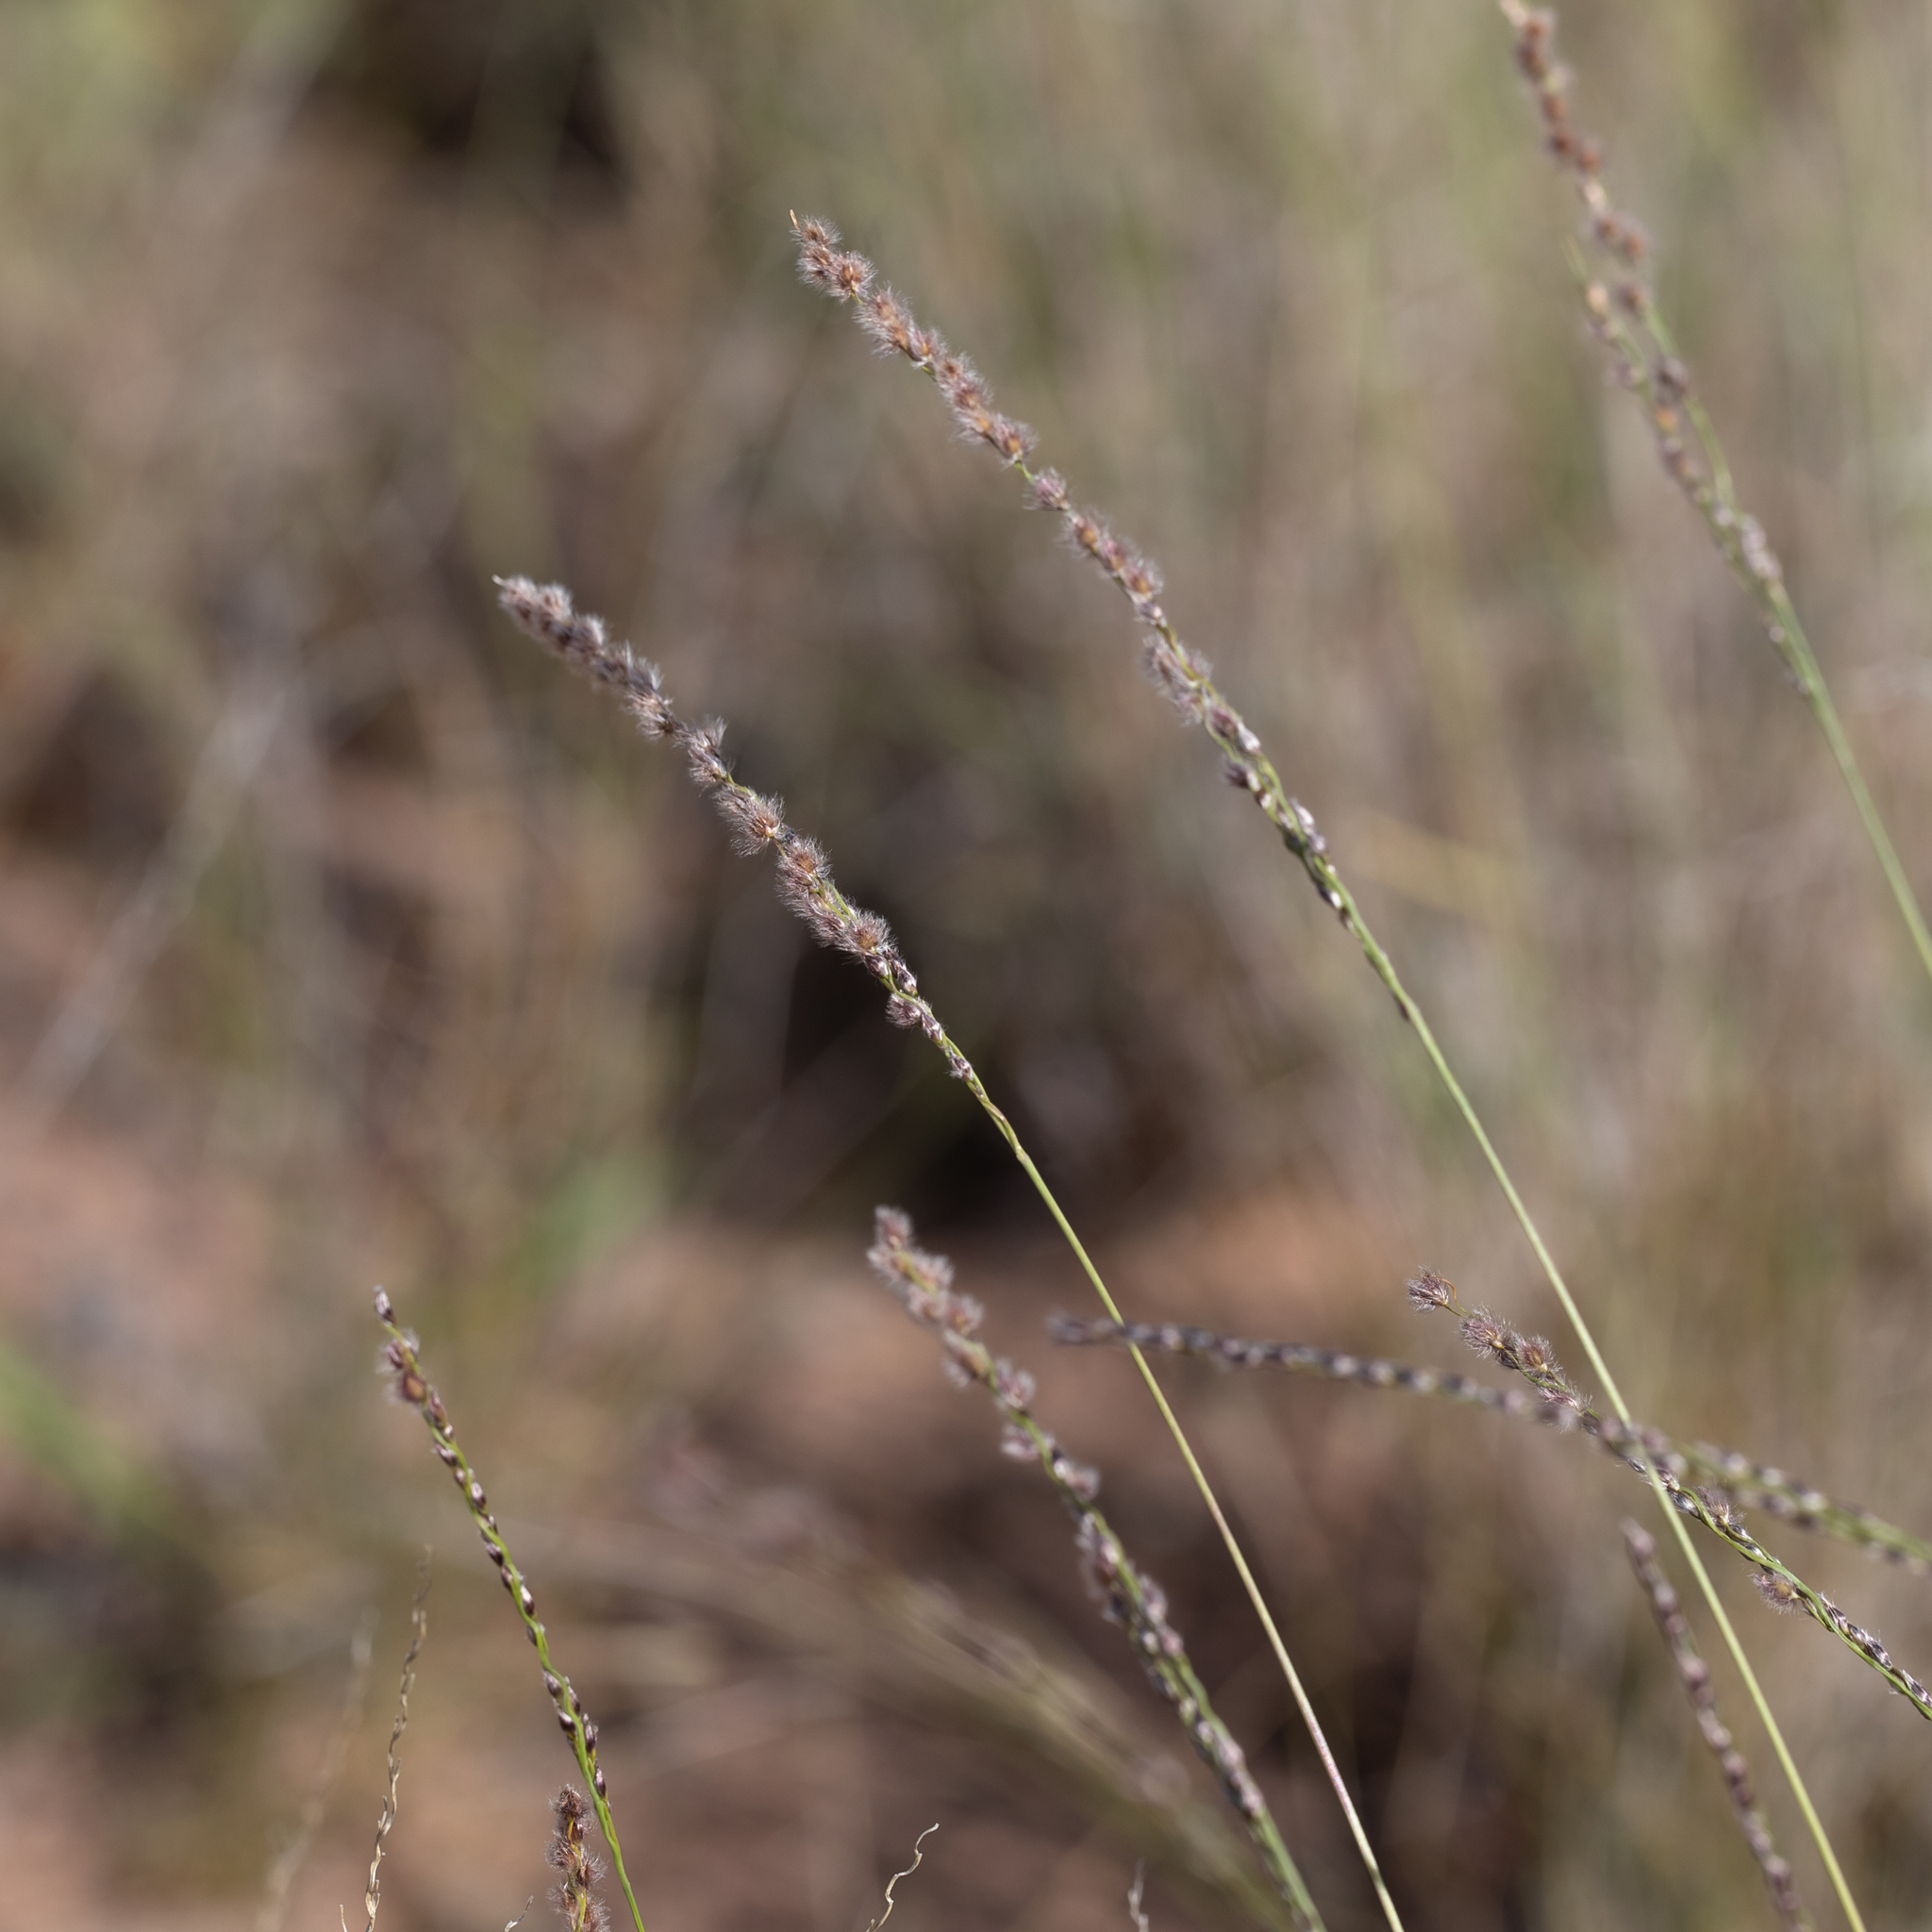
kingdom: Plantae
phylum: Tracheophyta
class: Liliopsida
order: Poales
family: Poaceae
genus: Digitaria
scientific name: Digitaria brownii
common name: Cotton grass
